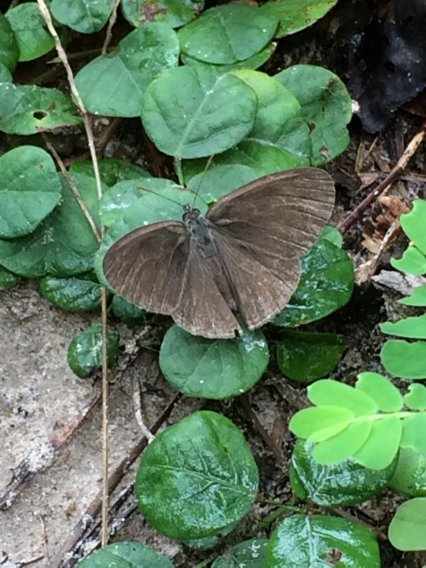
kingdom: Animalia
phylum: Arthropoda
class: Insecta
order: Lepidoptera
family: Nymphalidae
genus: Hermeuptychia
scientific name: Hermeuptychia hermes
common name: Hermes satyr
